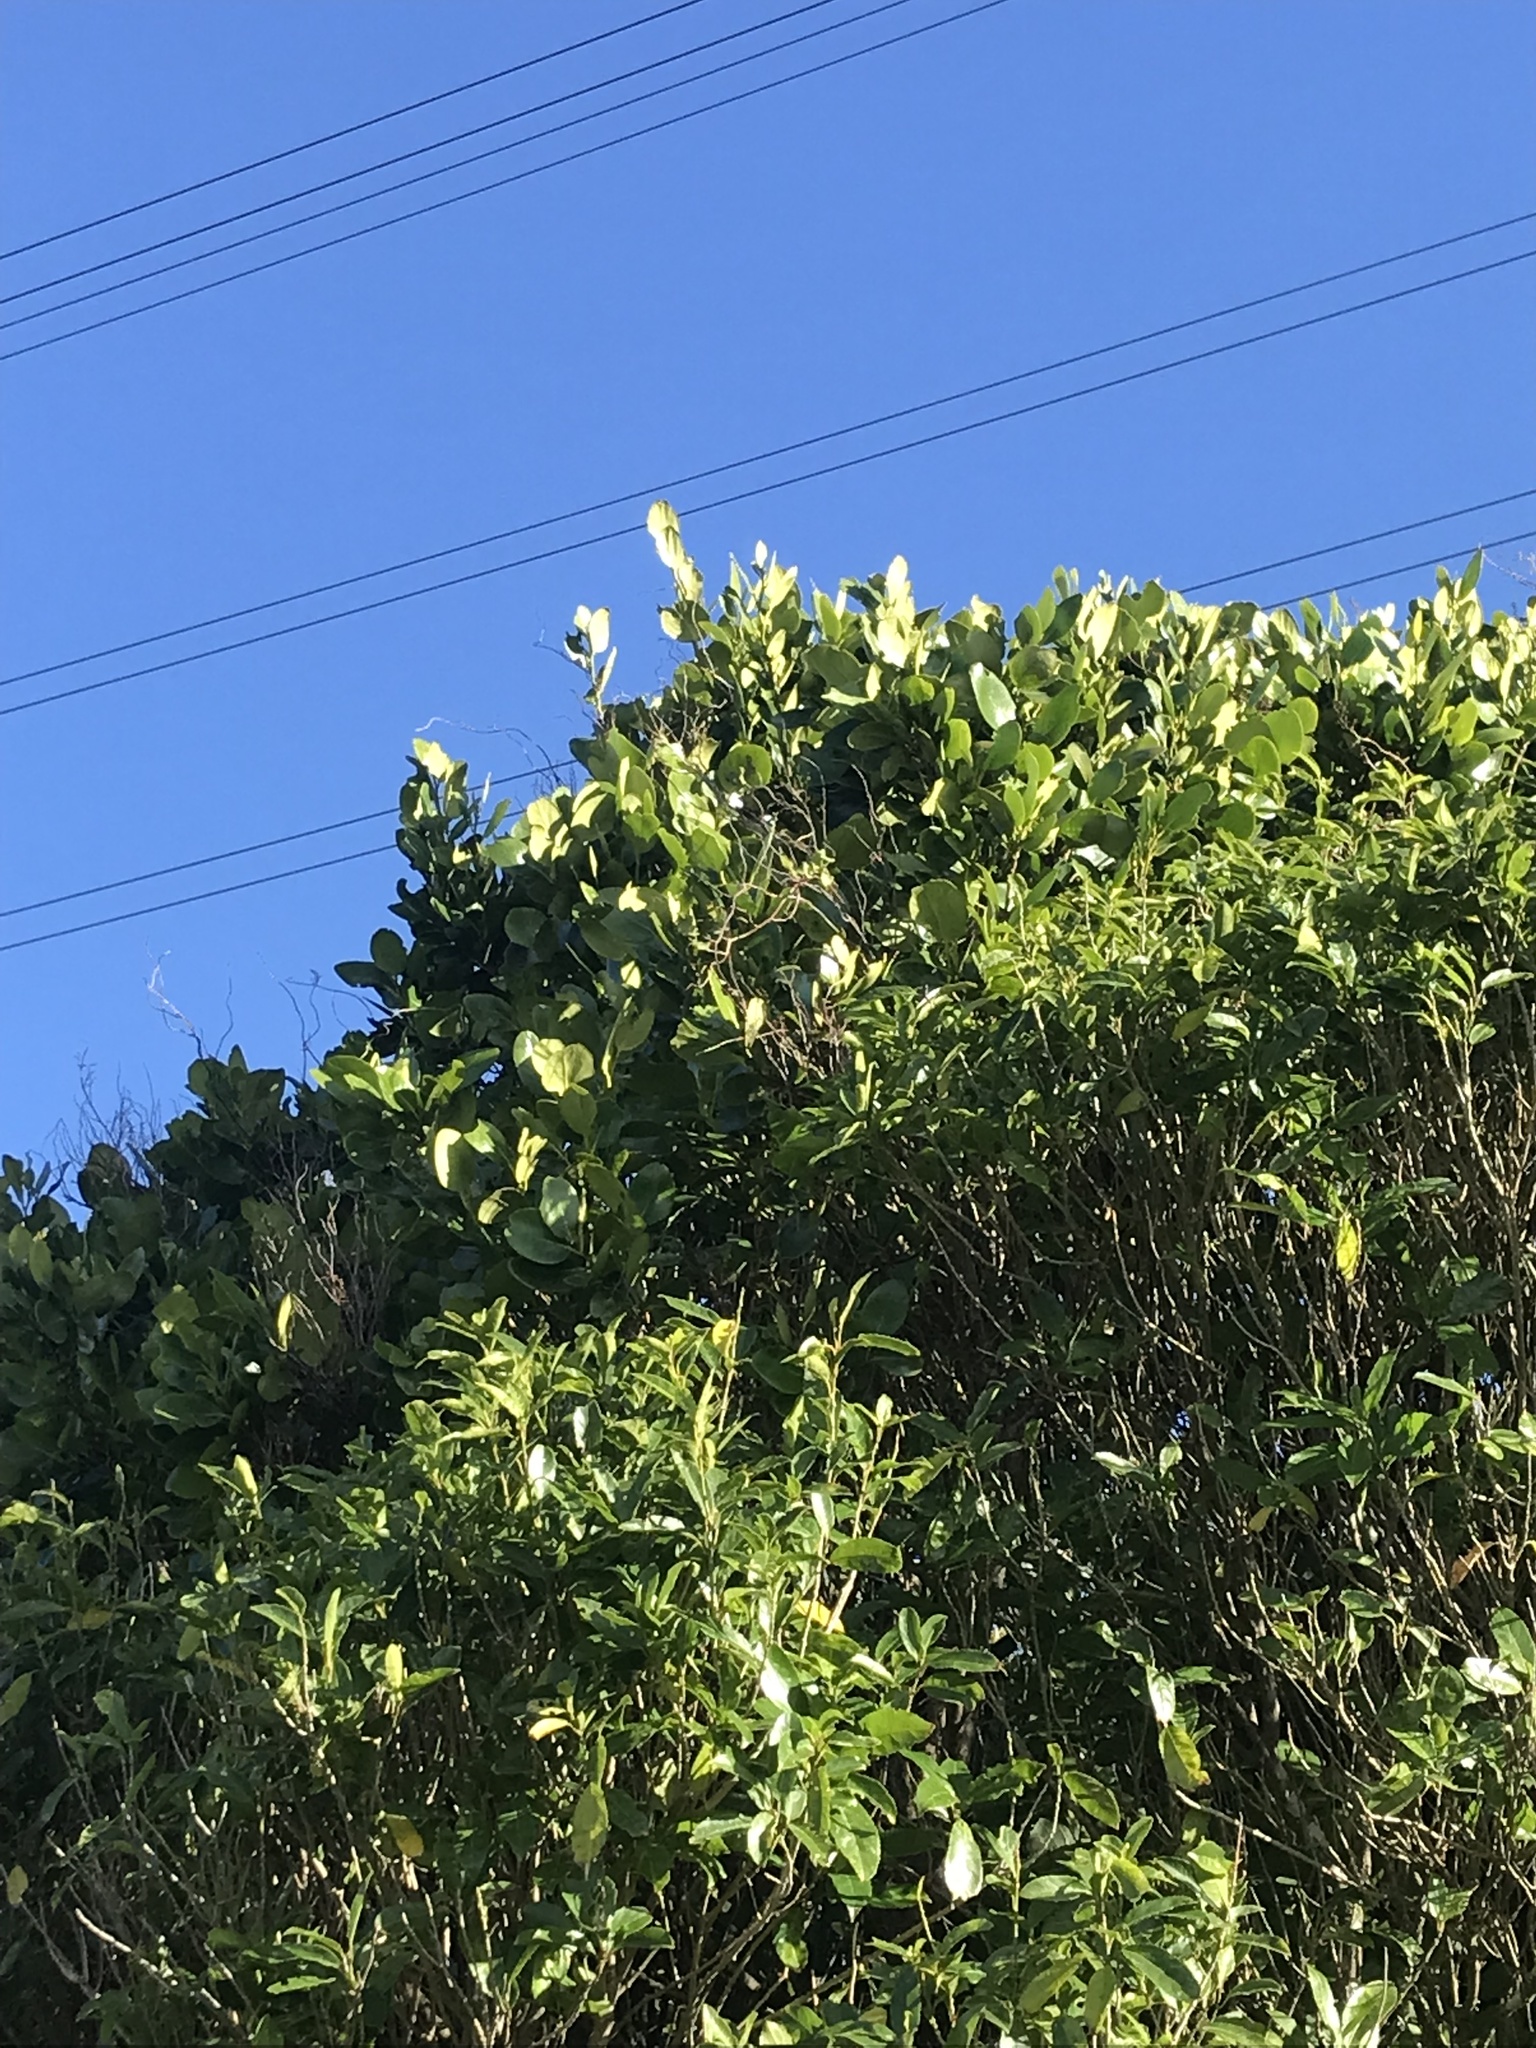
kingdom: Plantae
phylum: Tracheophyta
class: Magnoliopsida
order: Apiales
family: Griseliniaceae
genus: Griselinia
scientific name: Griselinia lucida
